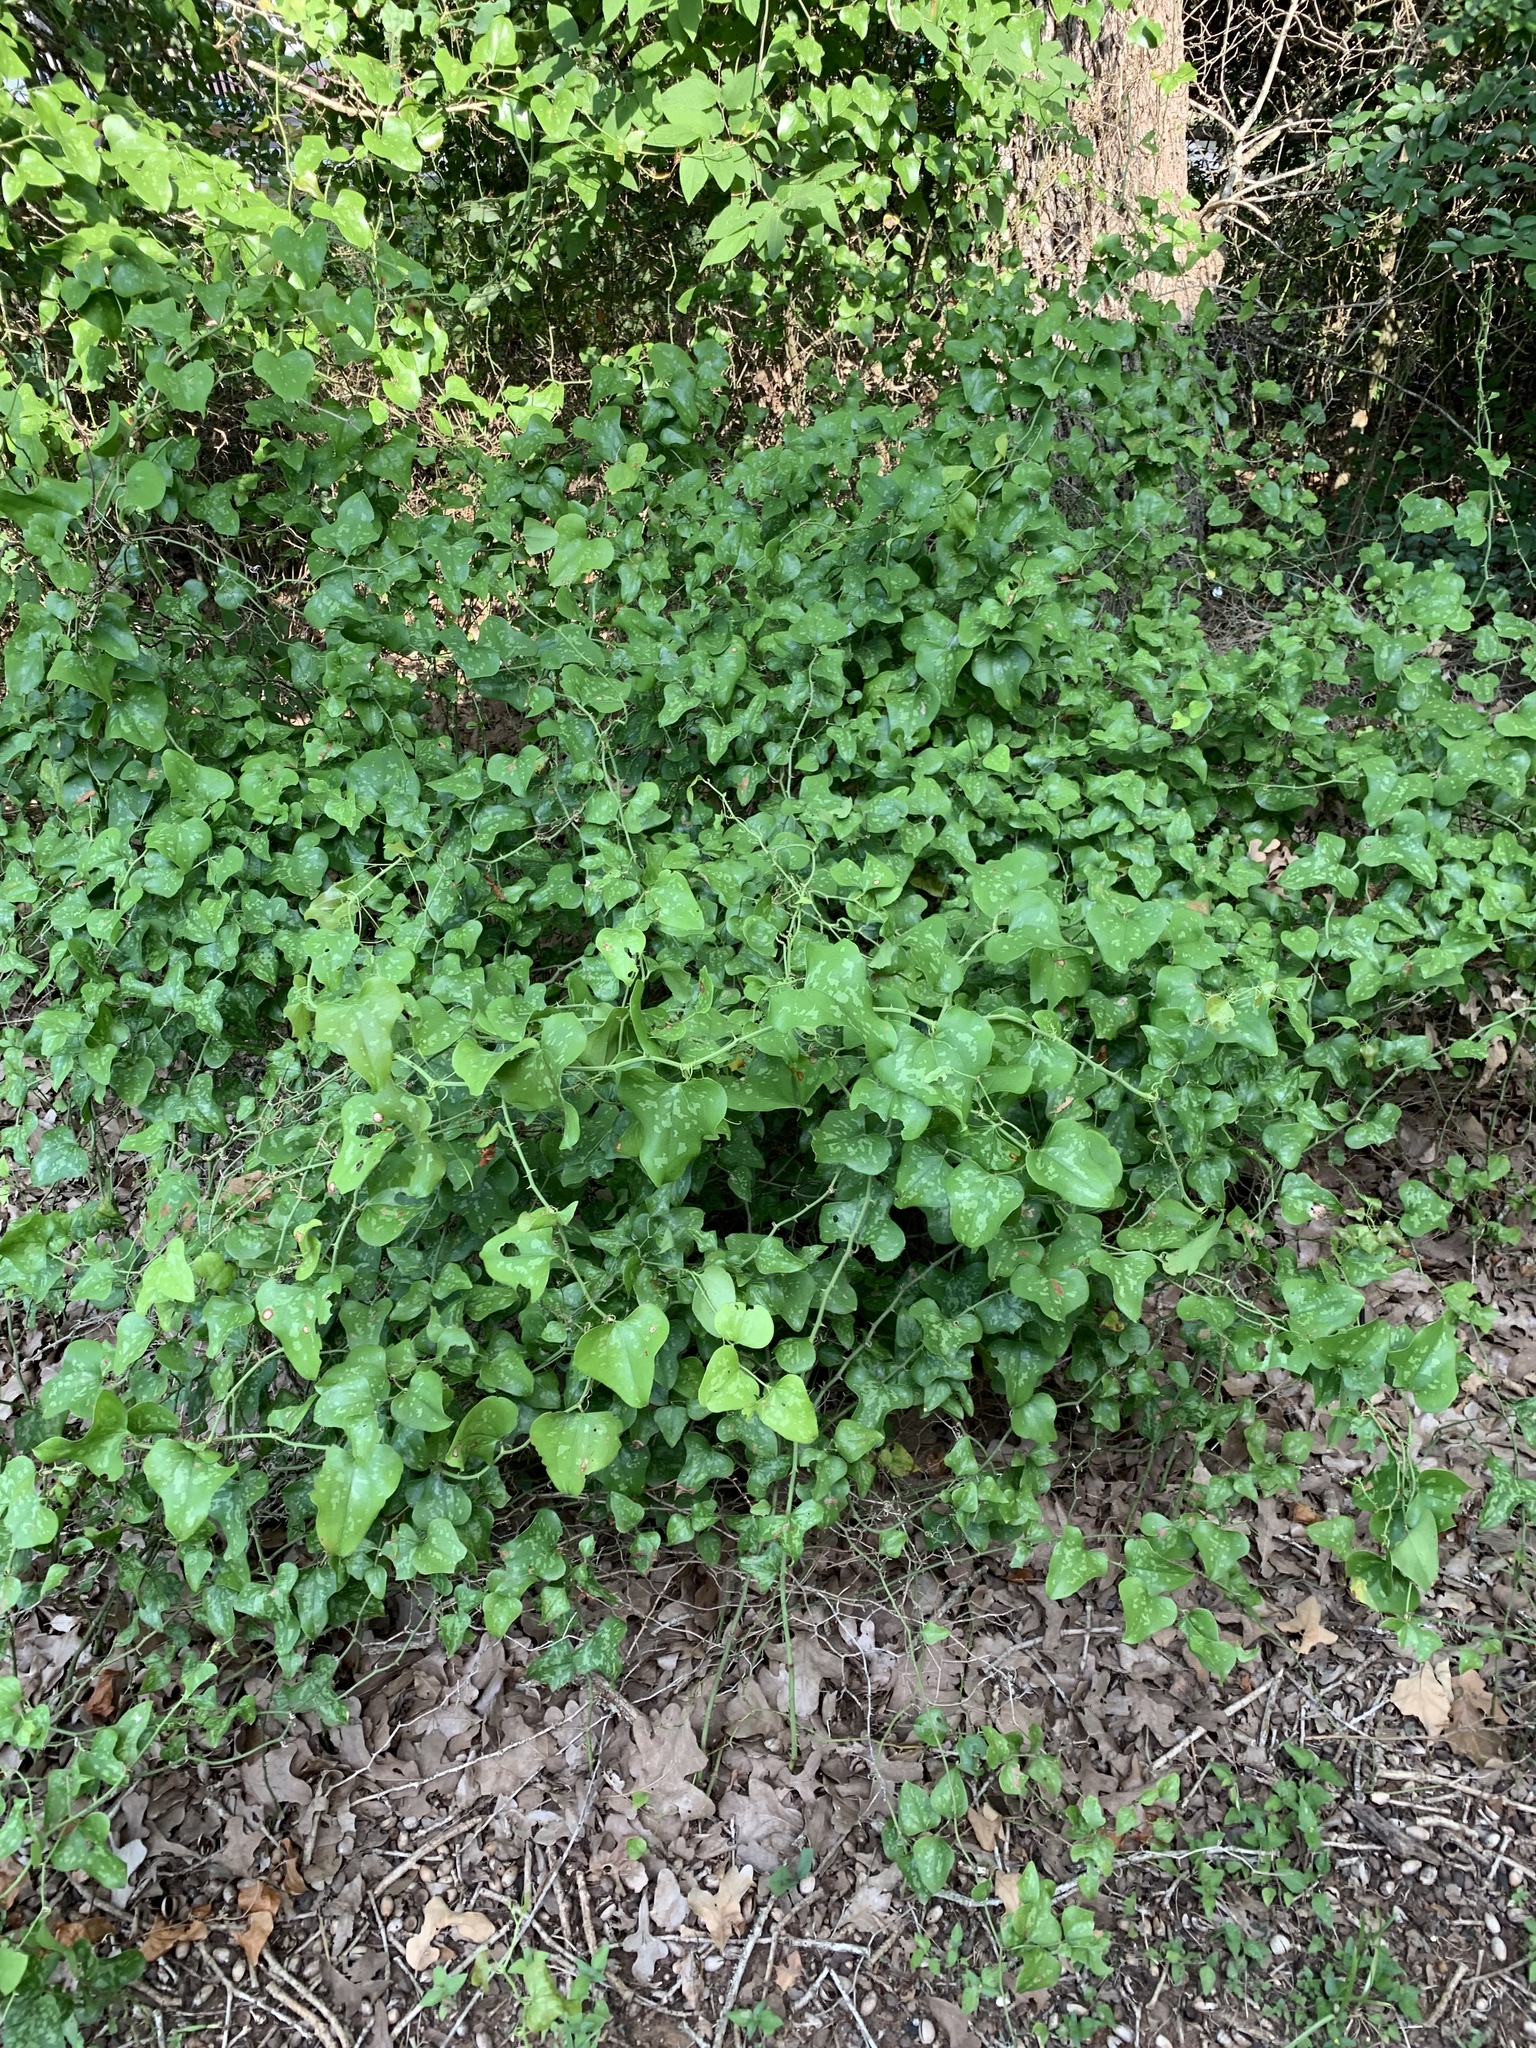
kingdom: Plantae
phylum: Tracheophyta
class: Liliopsida
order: Liliales
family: Smilacaceae
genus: Smilax
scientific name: Smilax bona-nox
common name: Catbrier
